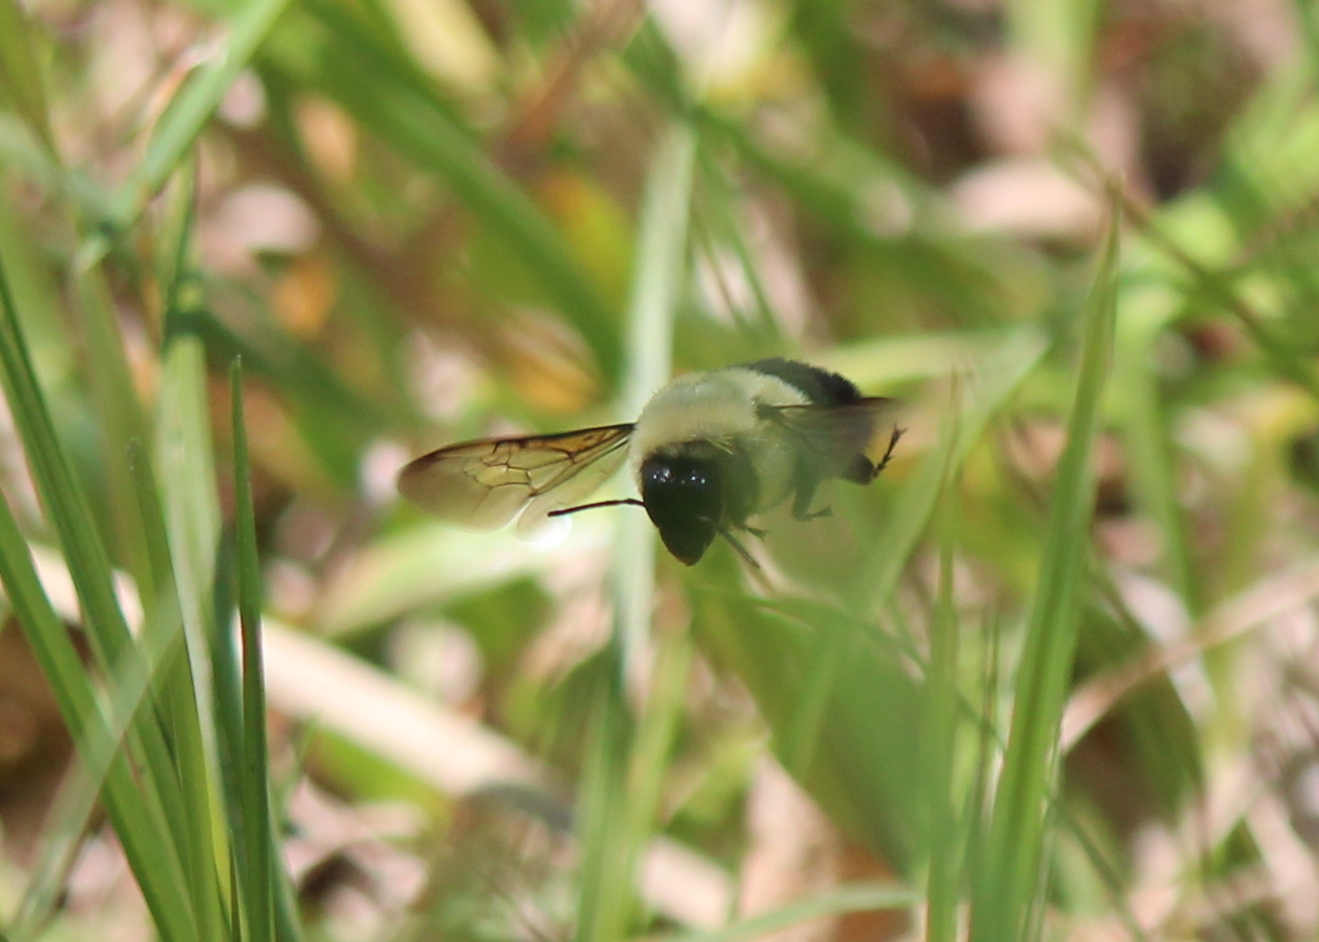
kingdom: Animalia
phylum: Arthropoda
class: Insecta
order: Hymenoptera
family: Apidae
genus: Bombus
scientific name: Bombus impatiens
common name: Common eastern bumble bee
